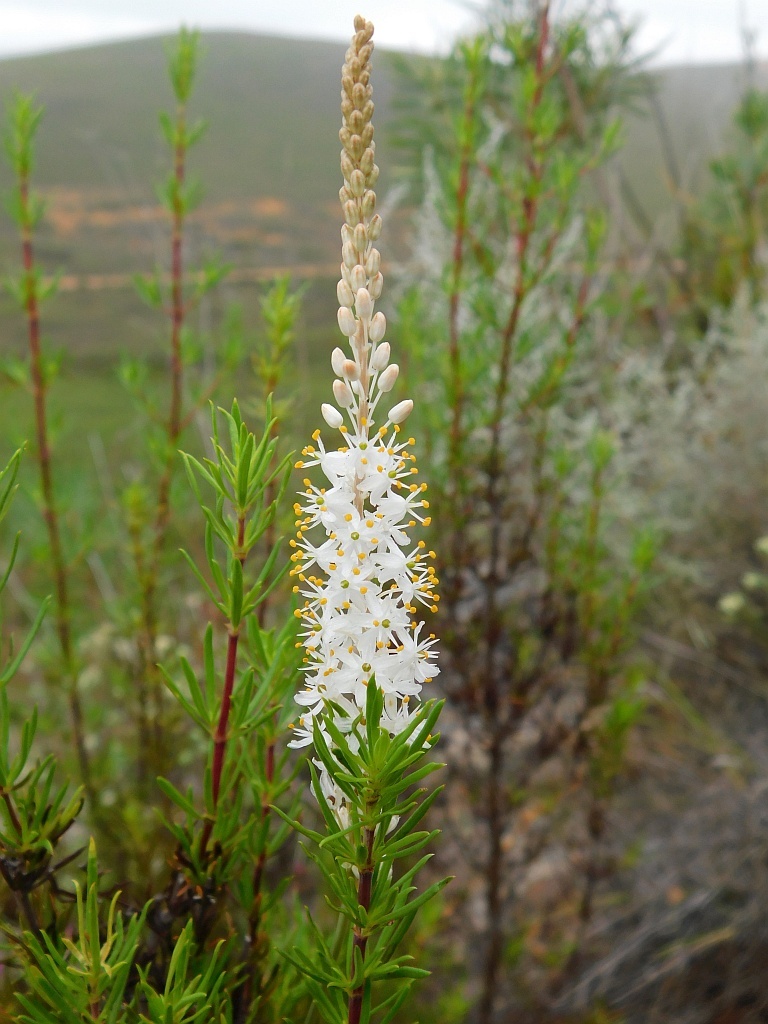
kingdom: Plantae
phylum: Tracheophyta
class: Liliopsida
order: Asparagales
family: Asphodelaceae
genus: Bulbinella
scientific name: Bulbinella trinervis
